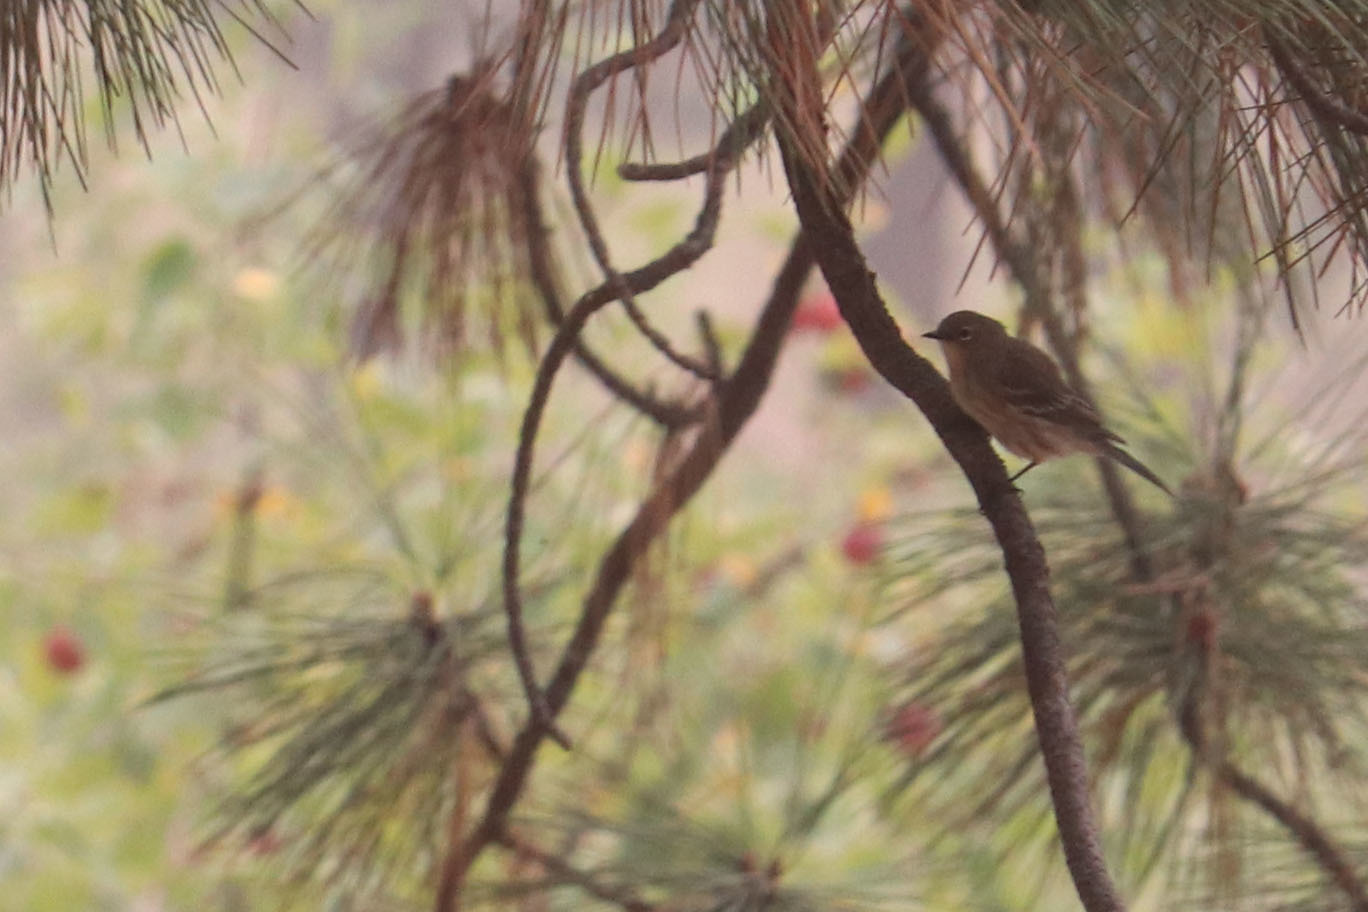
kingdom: Animalia
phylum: Chordata
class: Aves
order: Passeriformes
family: Parulidae
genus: Setophaga
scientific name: Setophaga coronata
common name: Myrtle warbler
